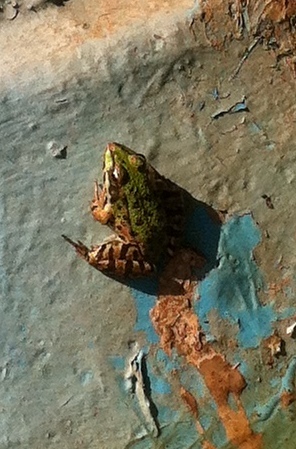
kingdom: Animalia
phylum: Chordata
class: Amphibia
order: Anura
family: Ranidae
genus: Pelophylax
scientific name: Pelophylax
